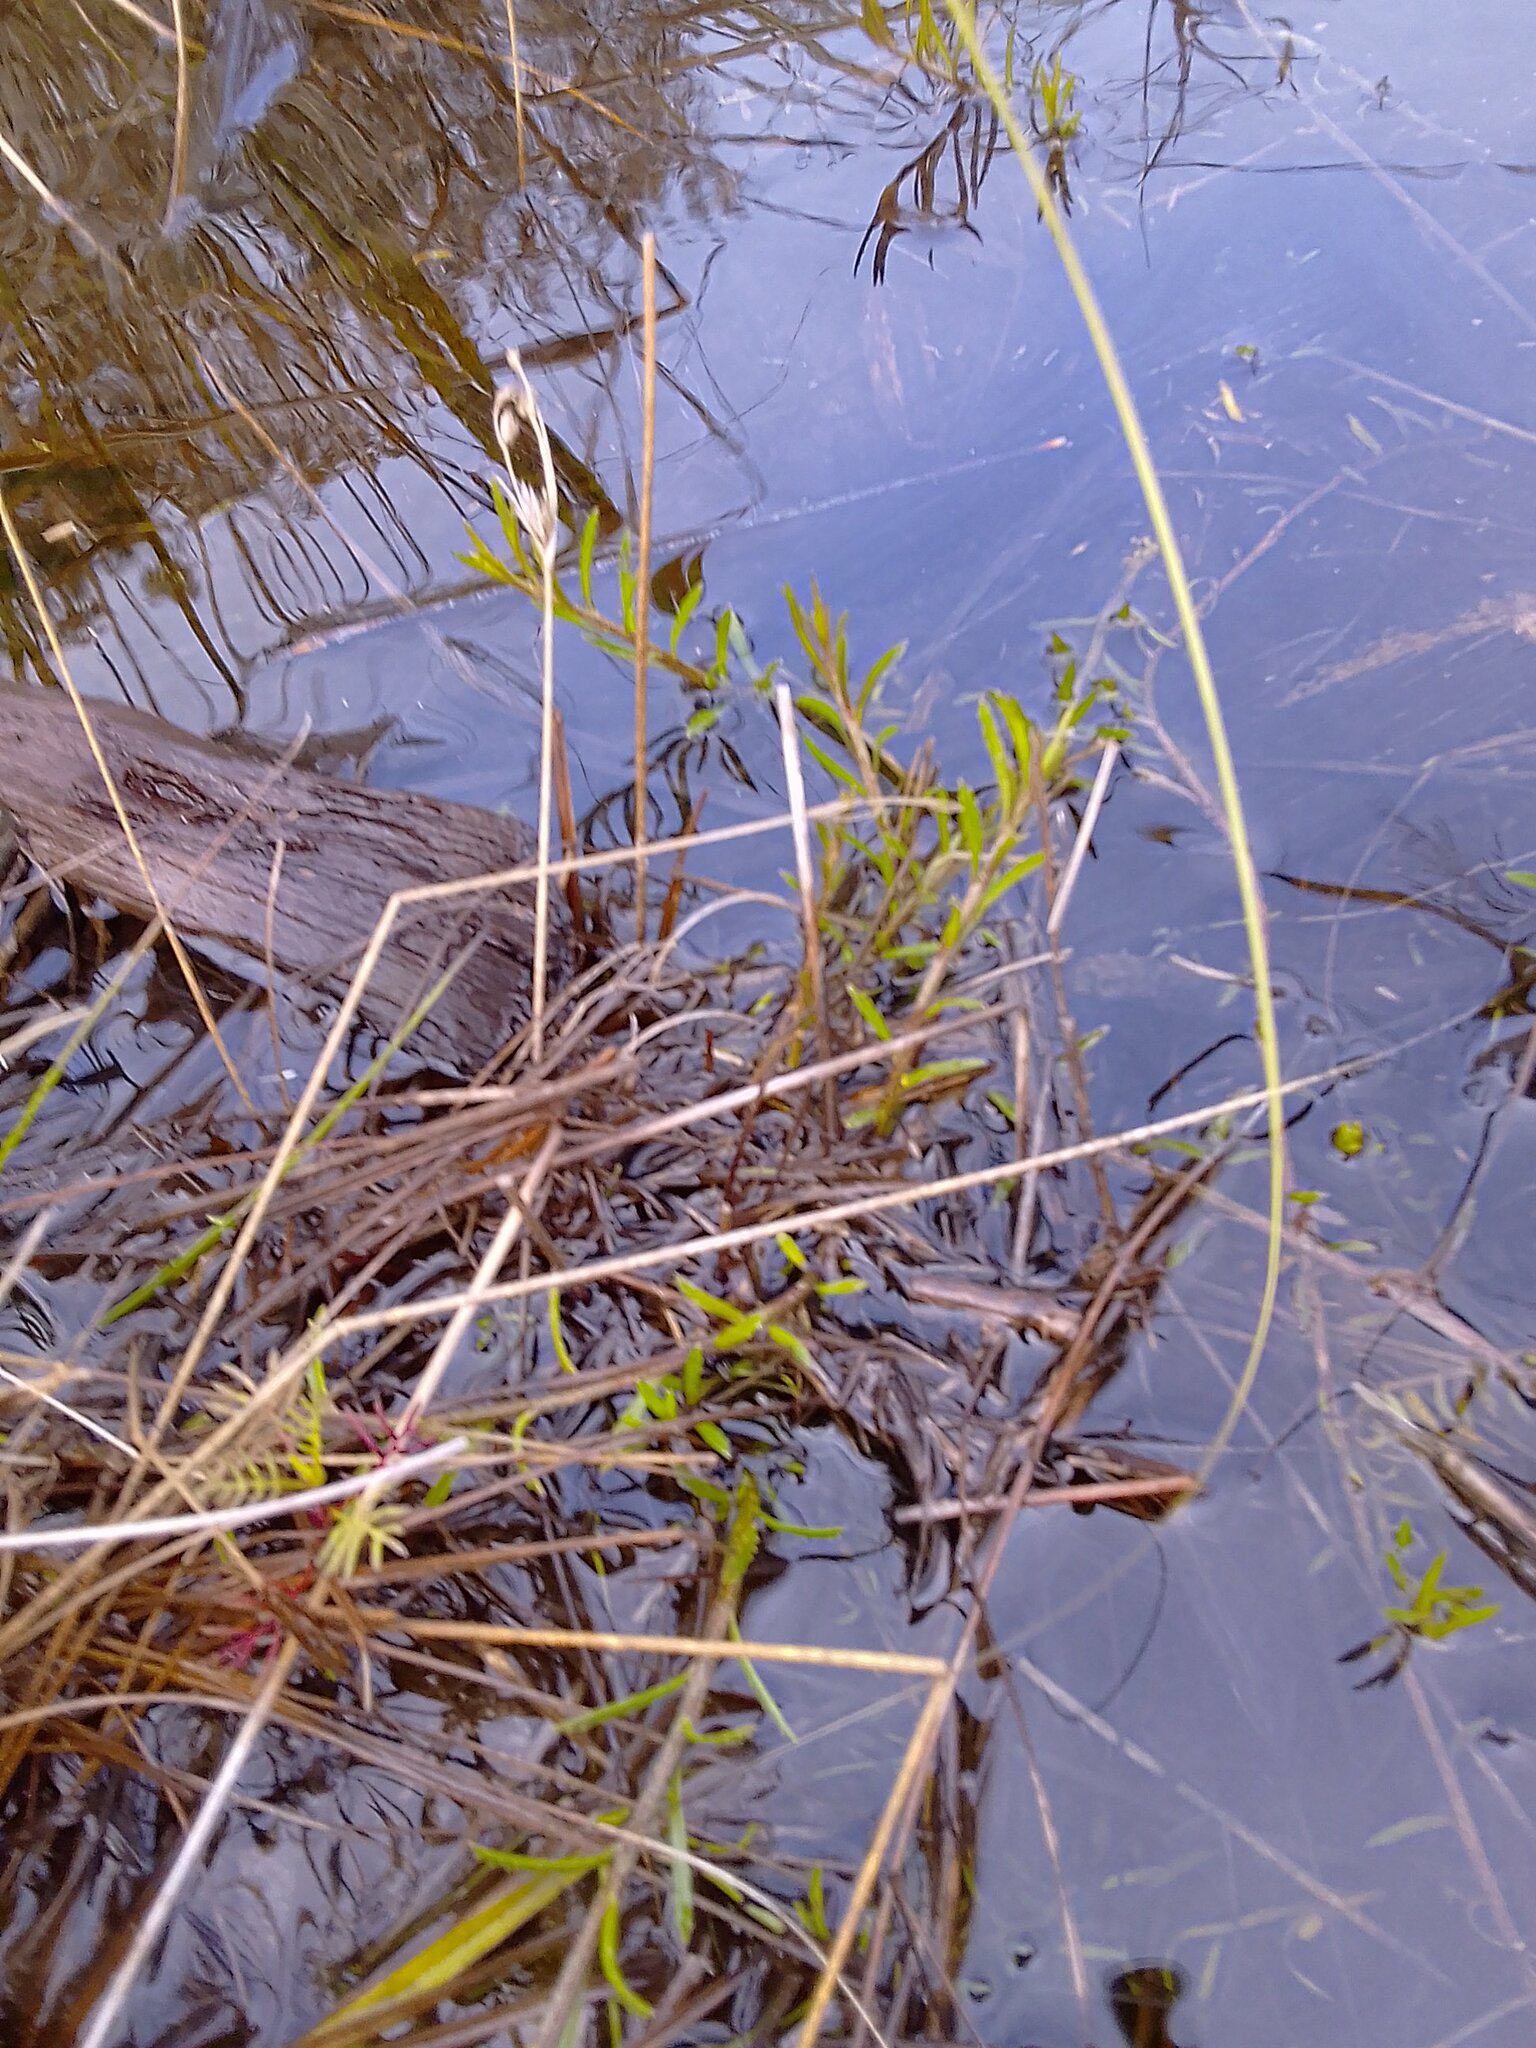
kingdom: Plantae
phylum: Tracheophyta
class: Magnoliopsida
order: Asterales
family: Campanulaceae
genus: Monopsis
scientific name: Monopsis lutea
